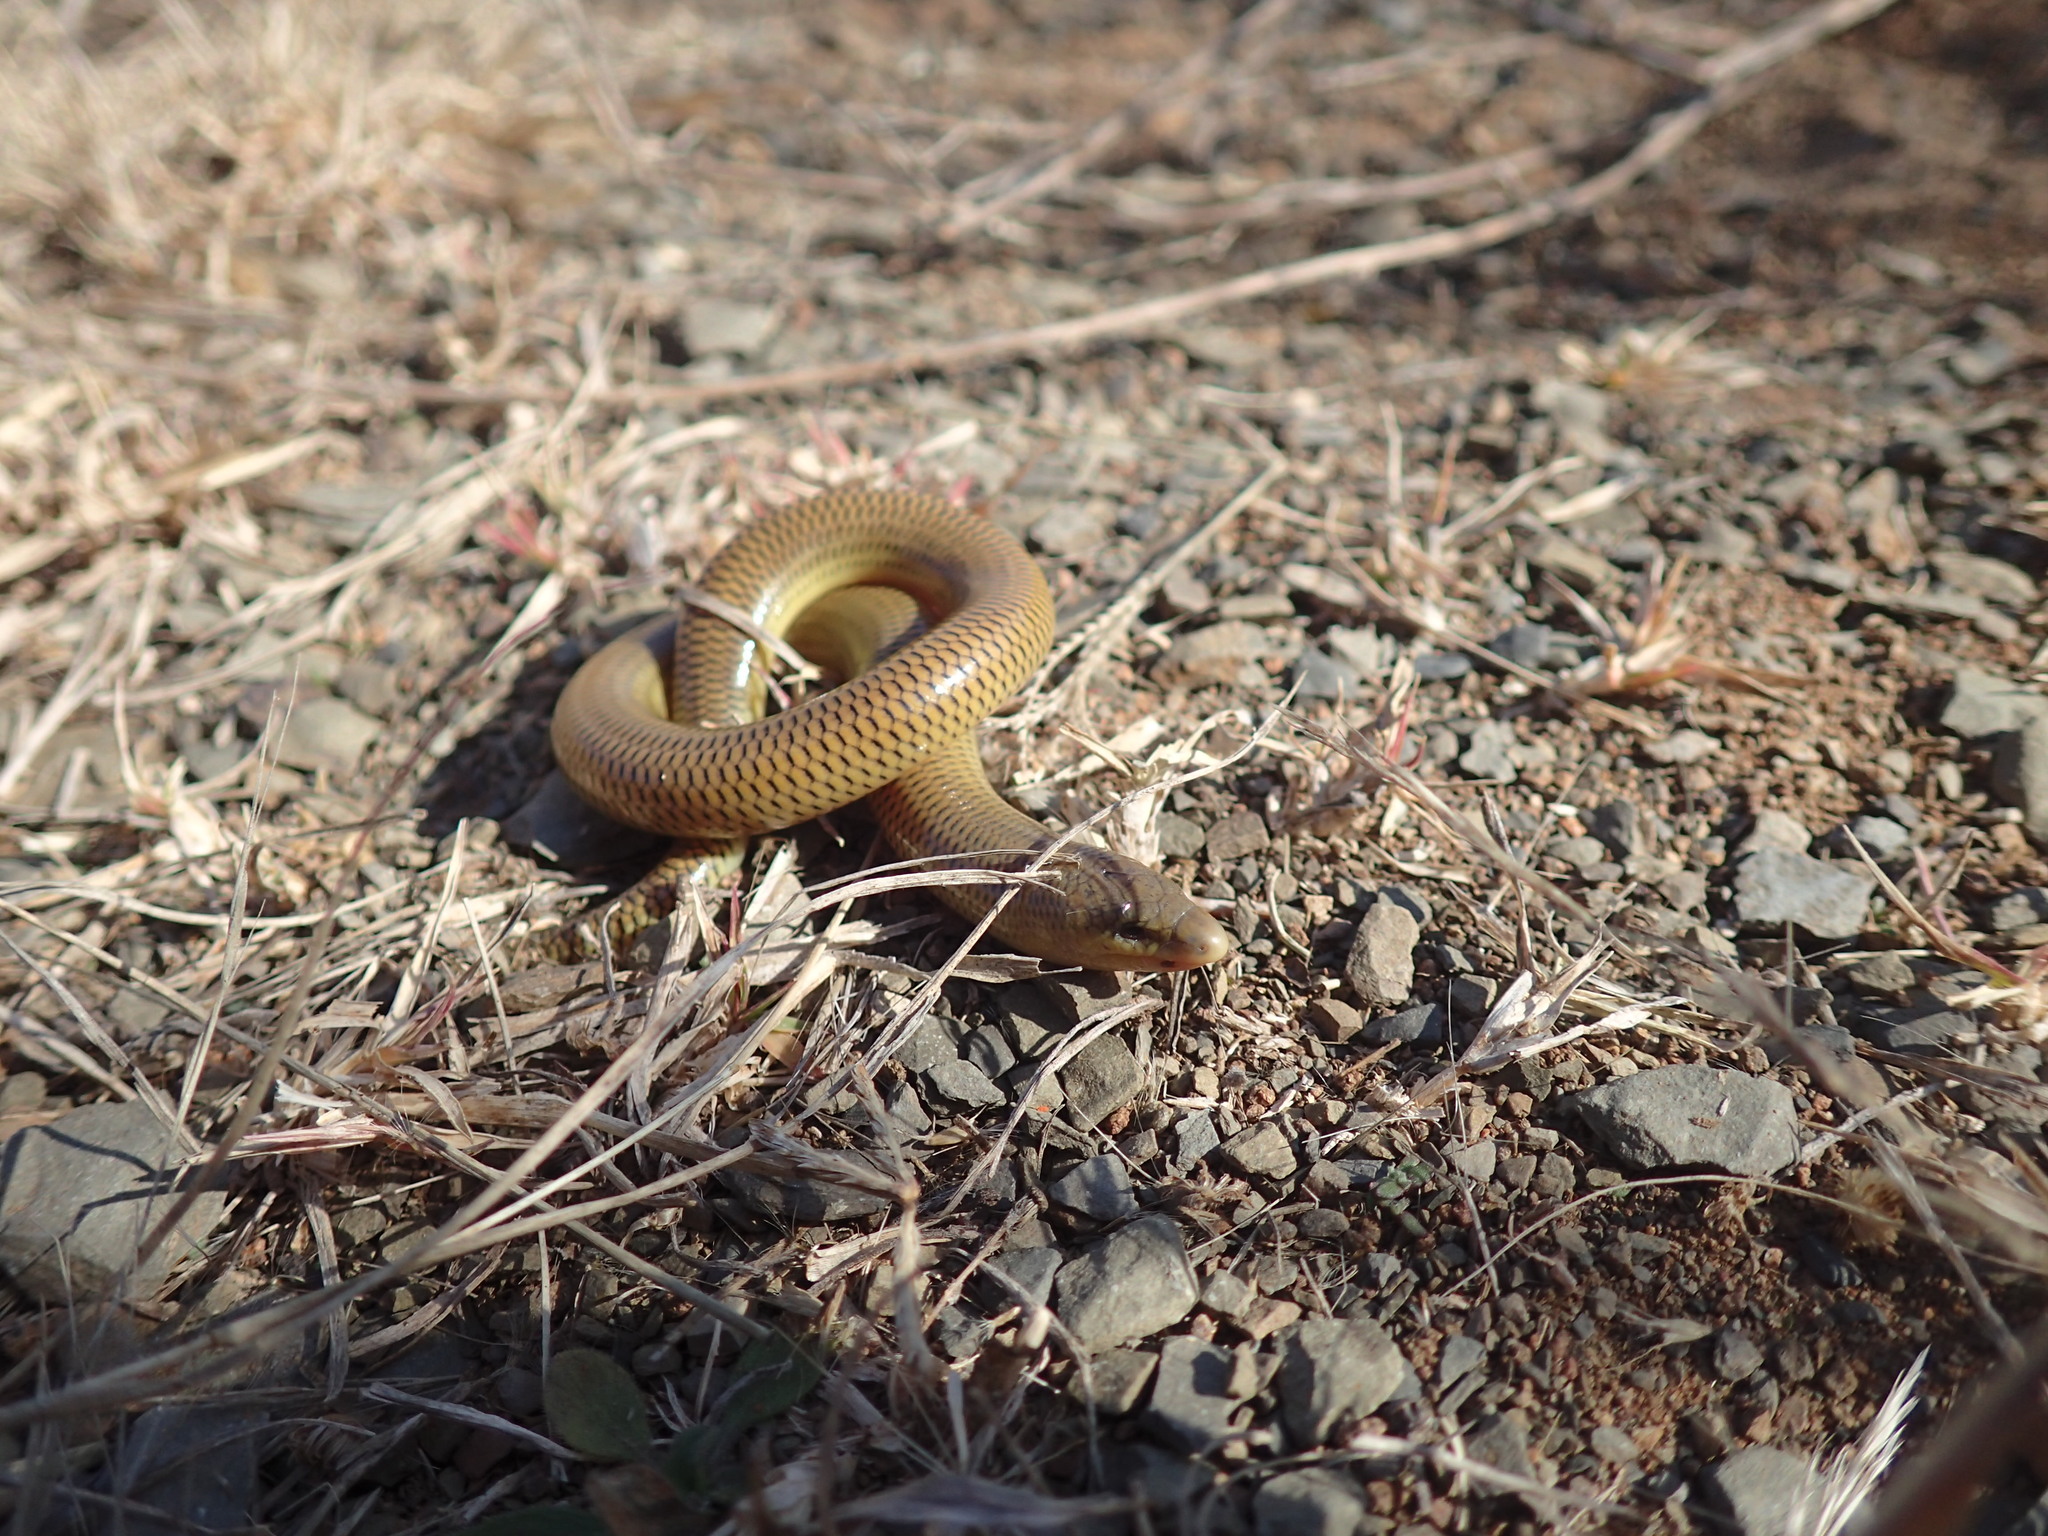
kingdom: Animalia
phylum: Chordata
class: Squamata
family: Scincidae
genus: Acontias
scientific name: Acontias gracilicauda
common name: Slendertail lance skink
